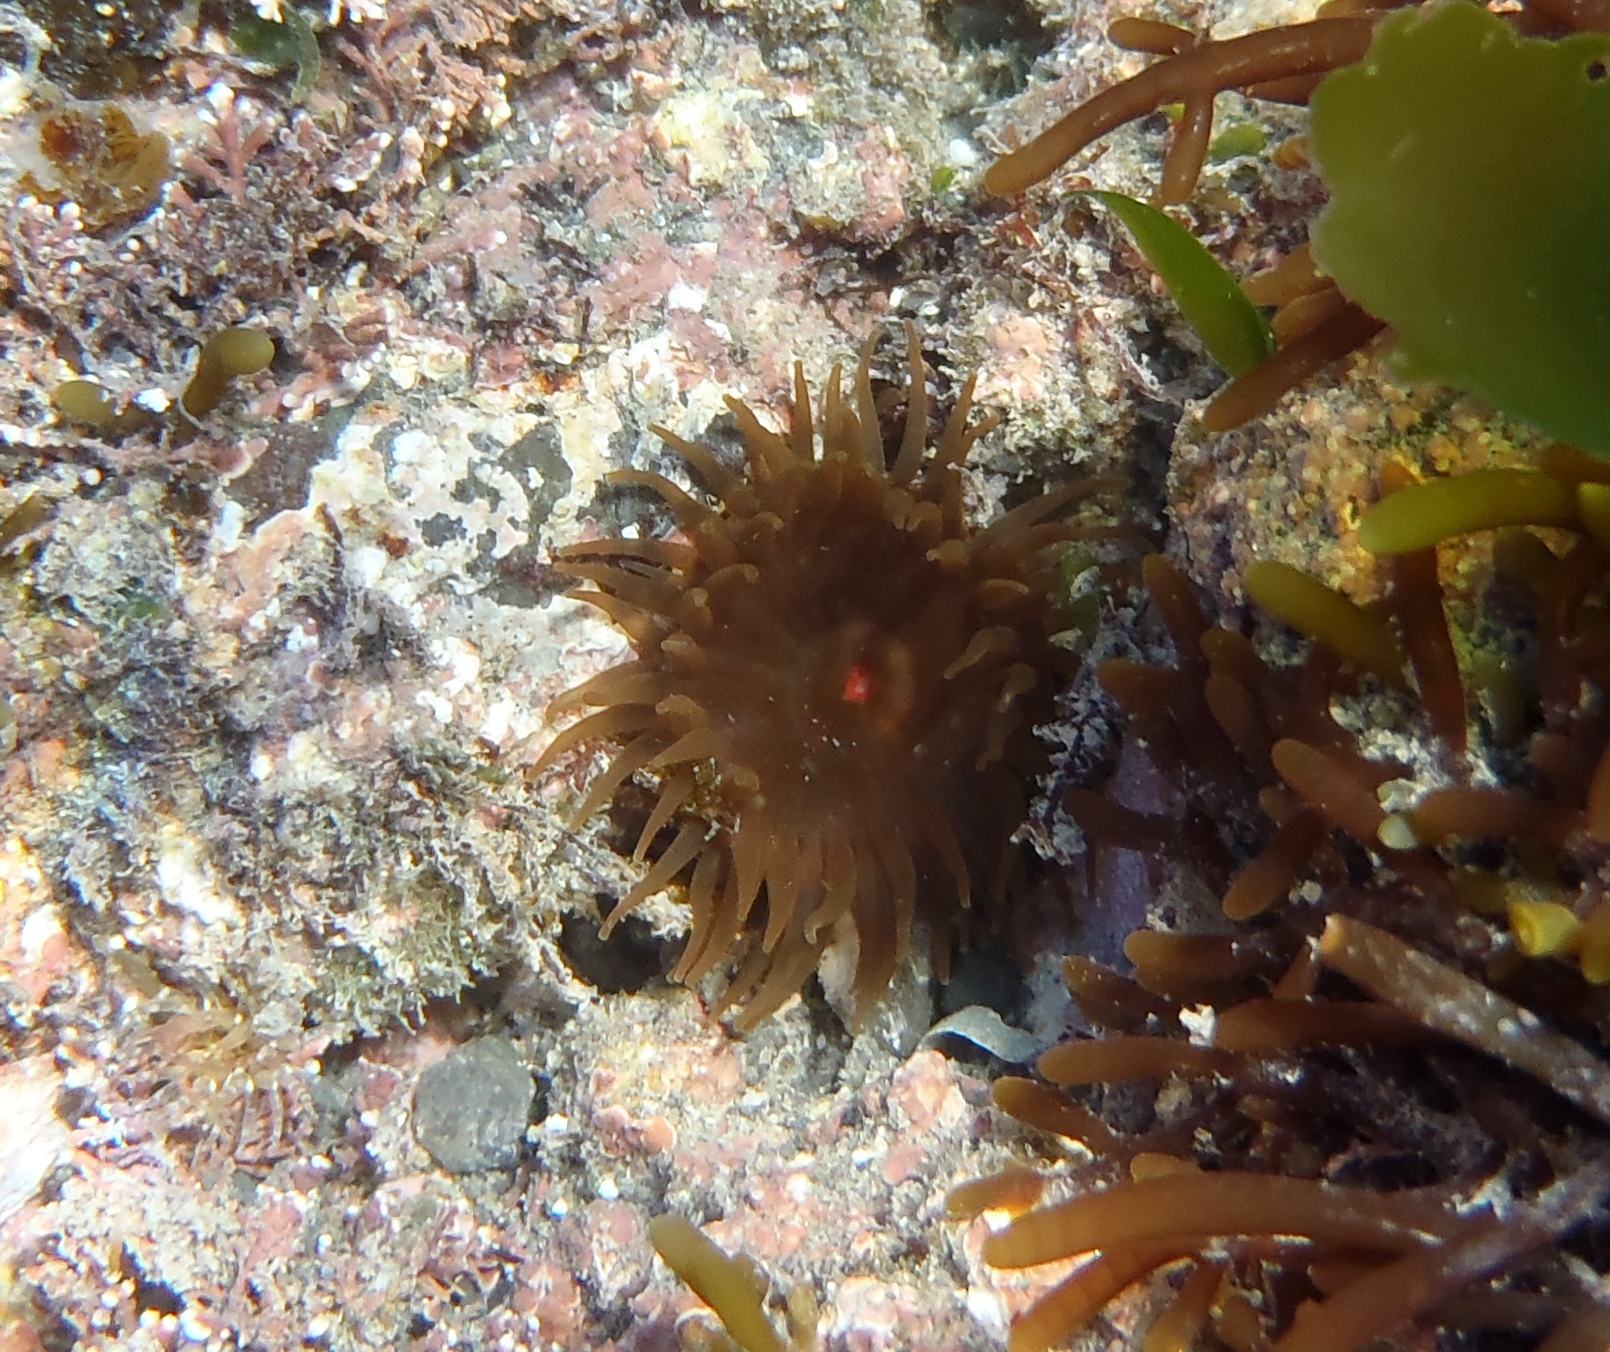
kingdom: Animalia
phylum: Cnidaria
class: Anthozoa
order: Actiniaria
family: Actiniidae
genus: Isactinia
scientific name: Isactinia olivacea
